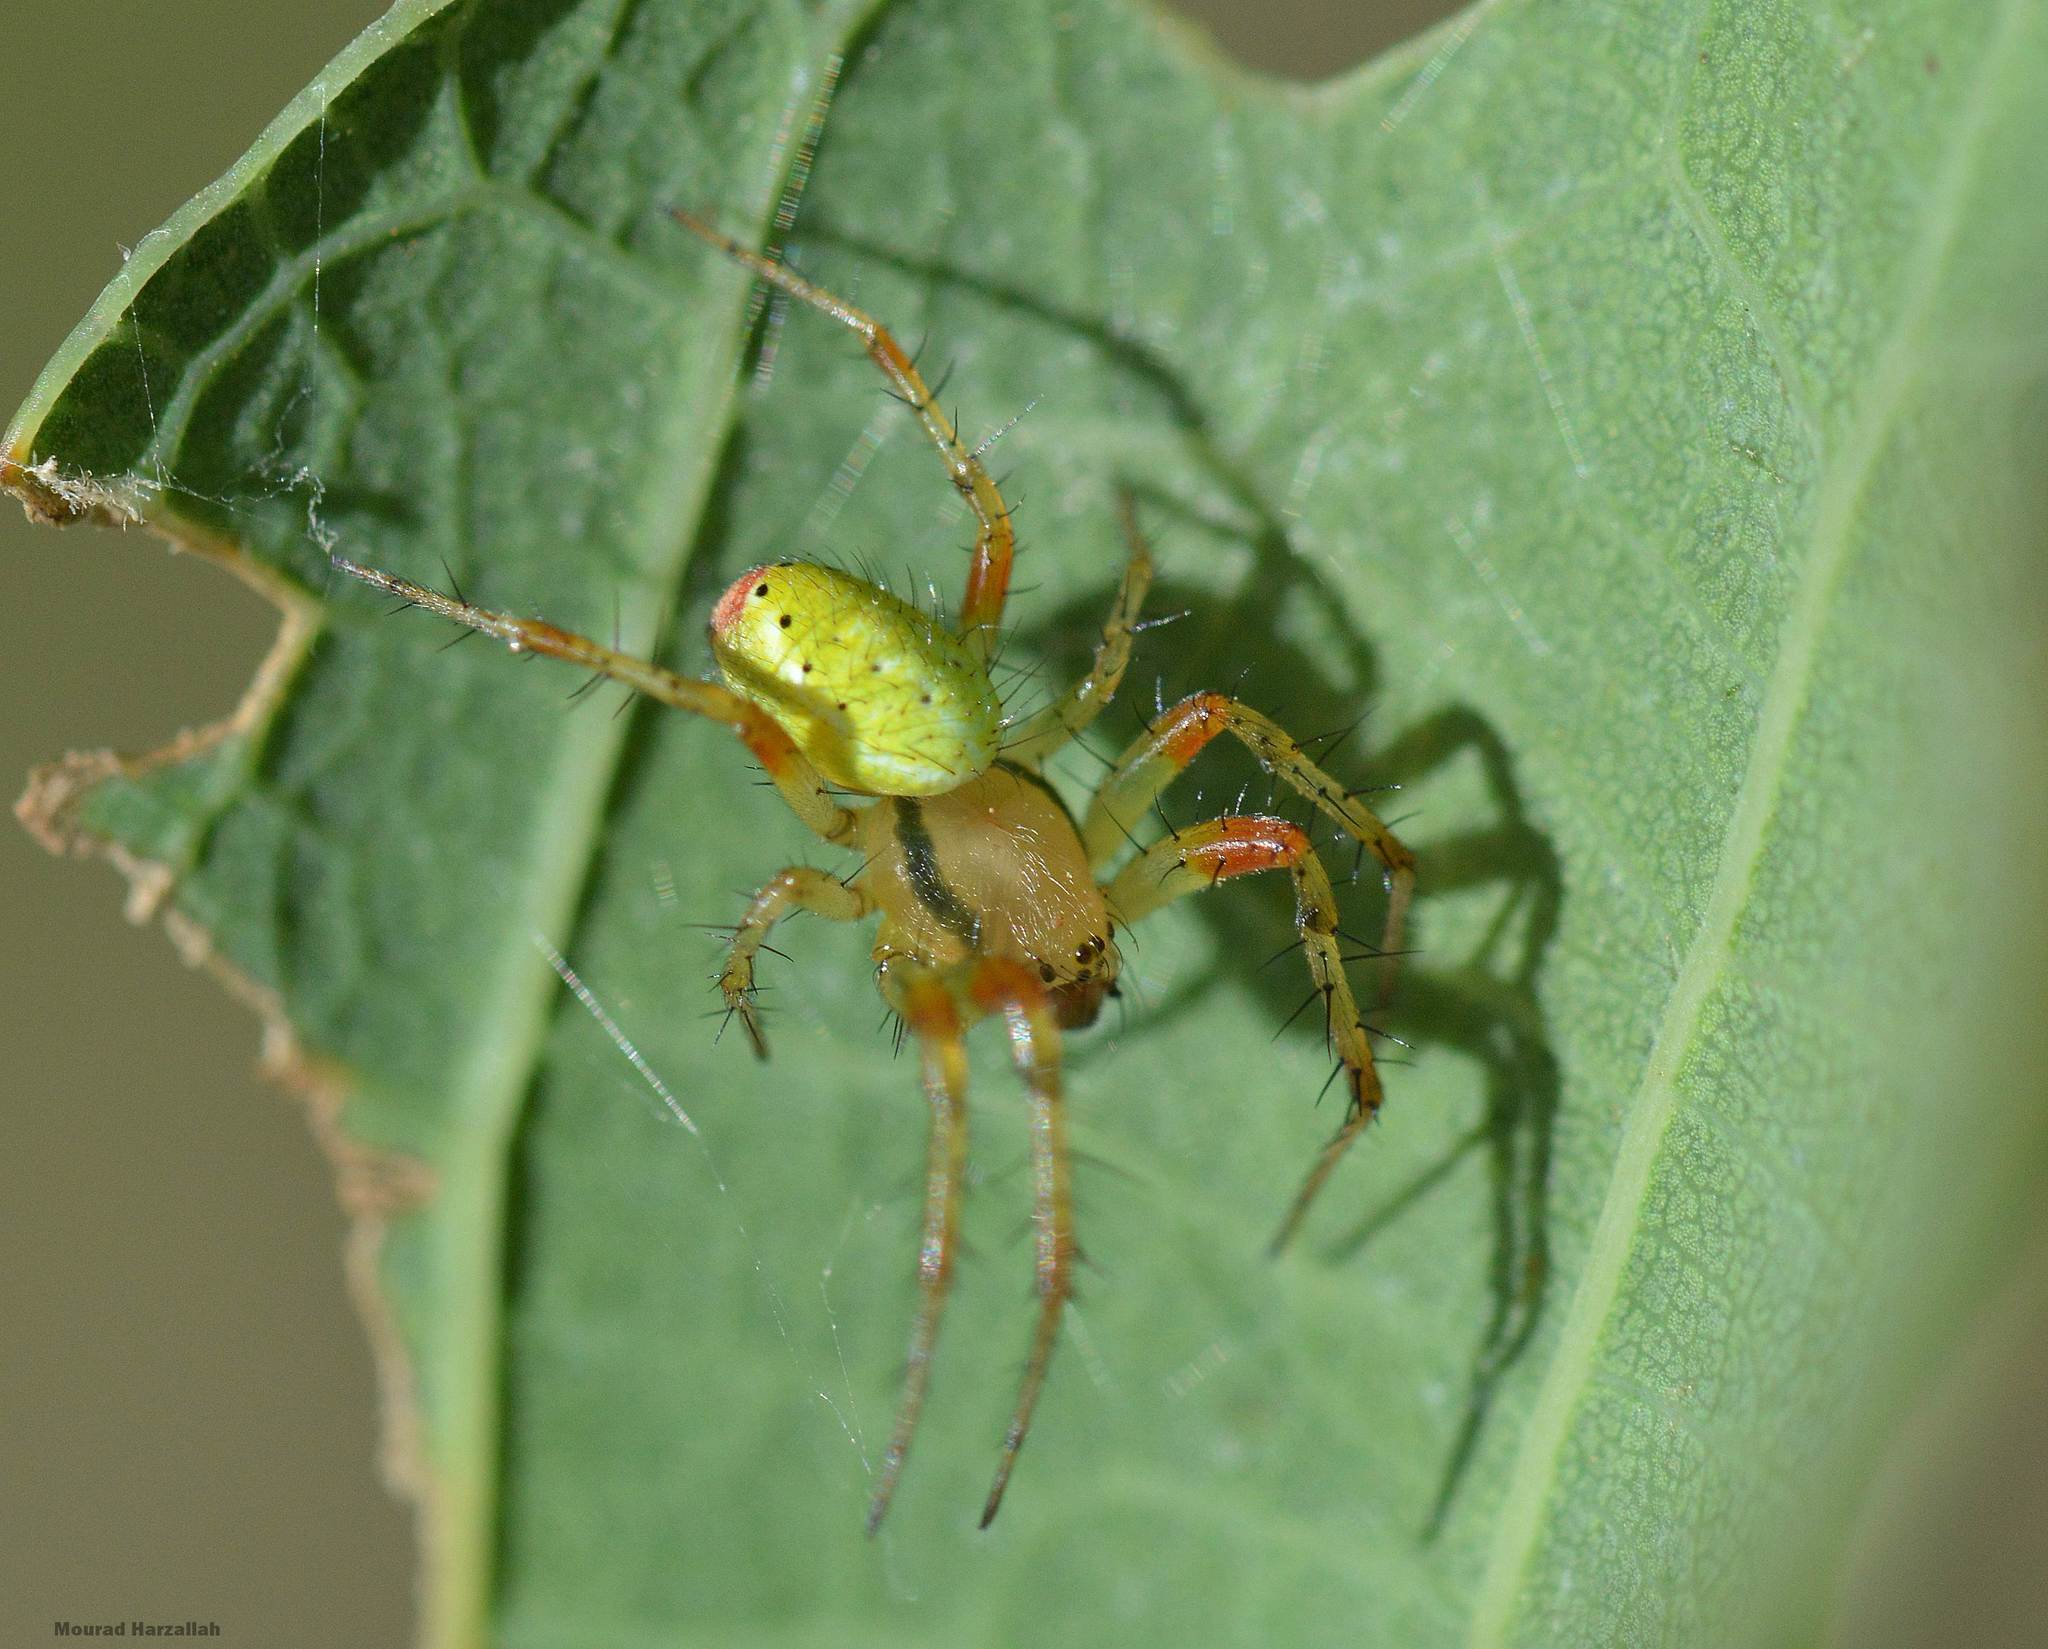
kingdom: Animalia
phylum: Arthropoda
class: Arachnida
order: Araneae
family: Araneidae
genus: Araniella
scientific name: Araniella cucurbitina
